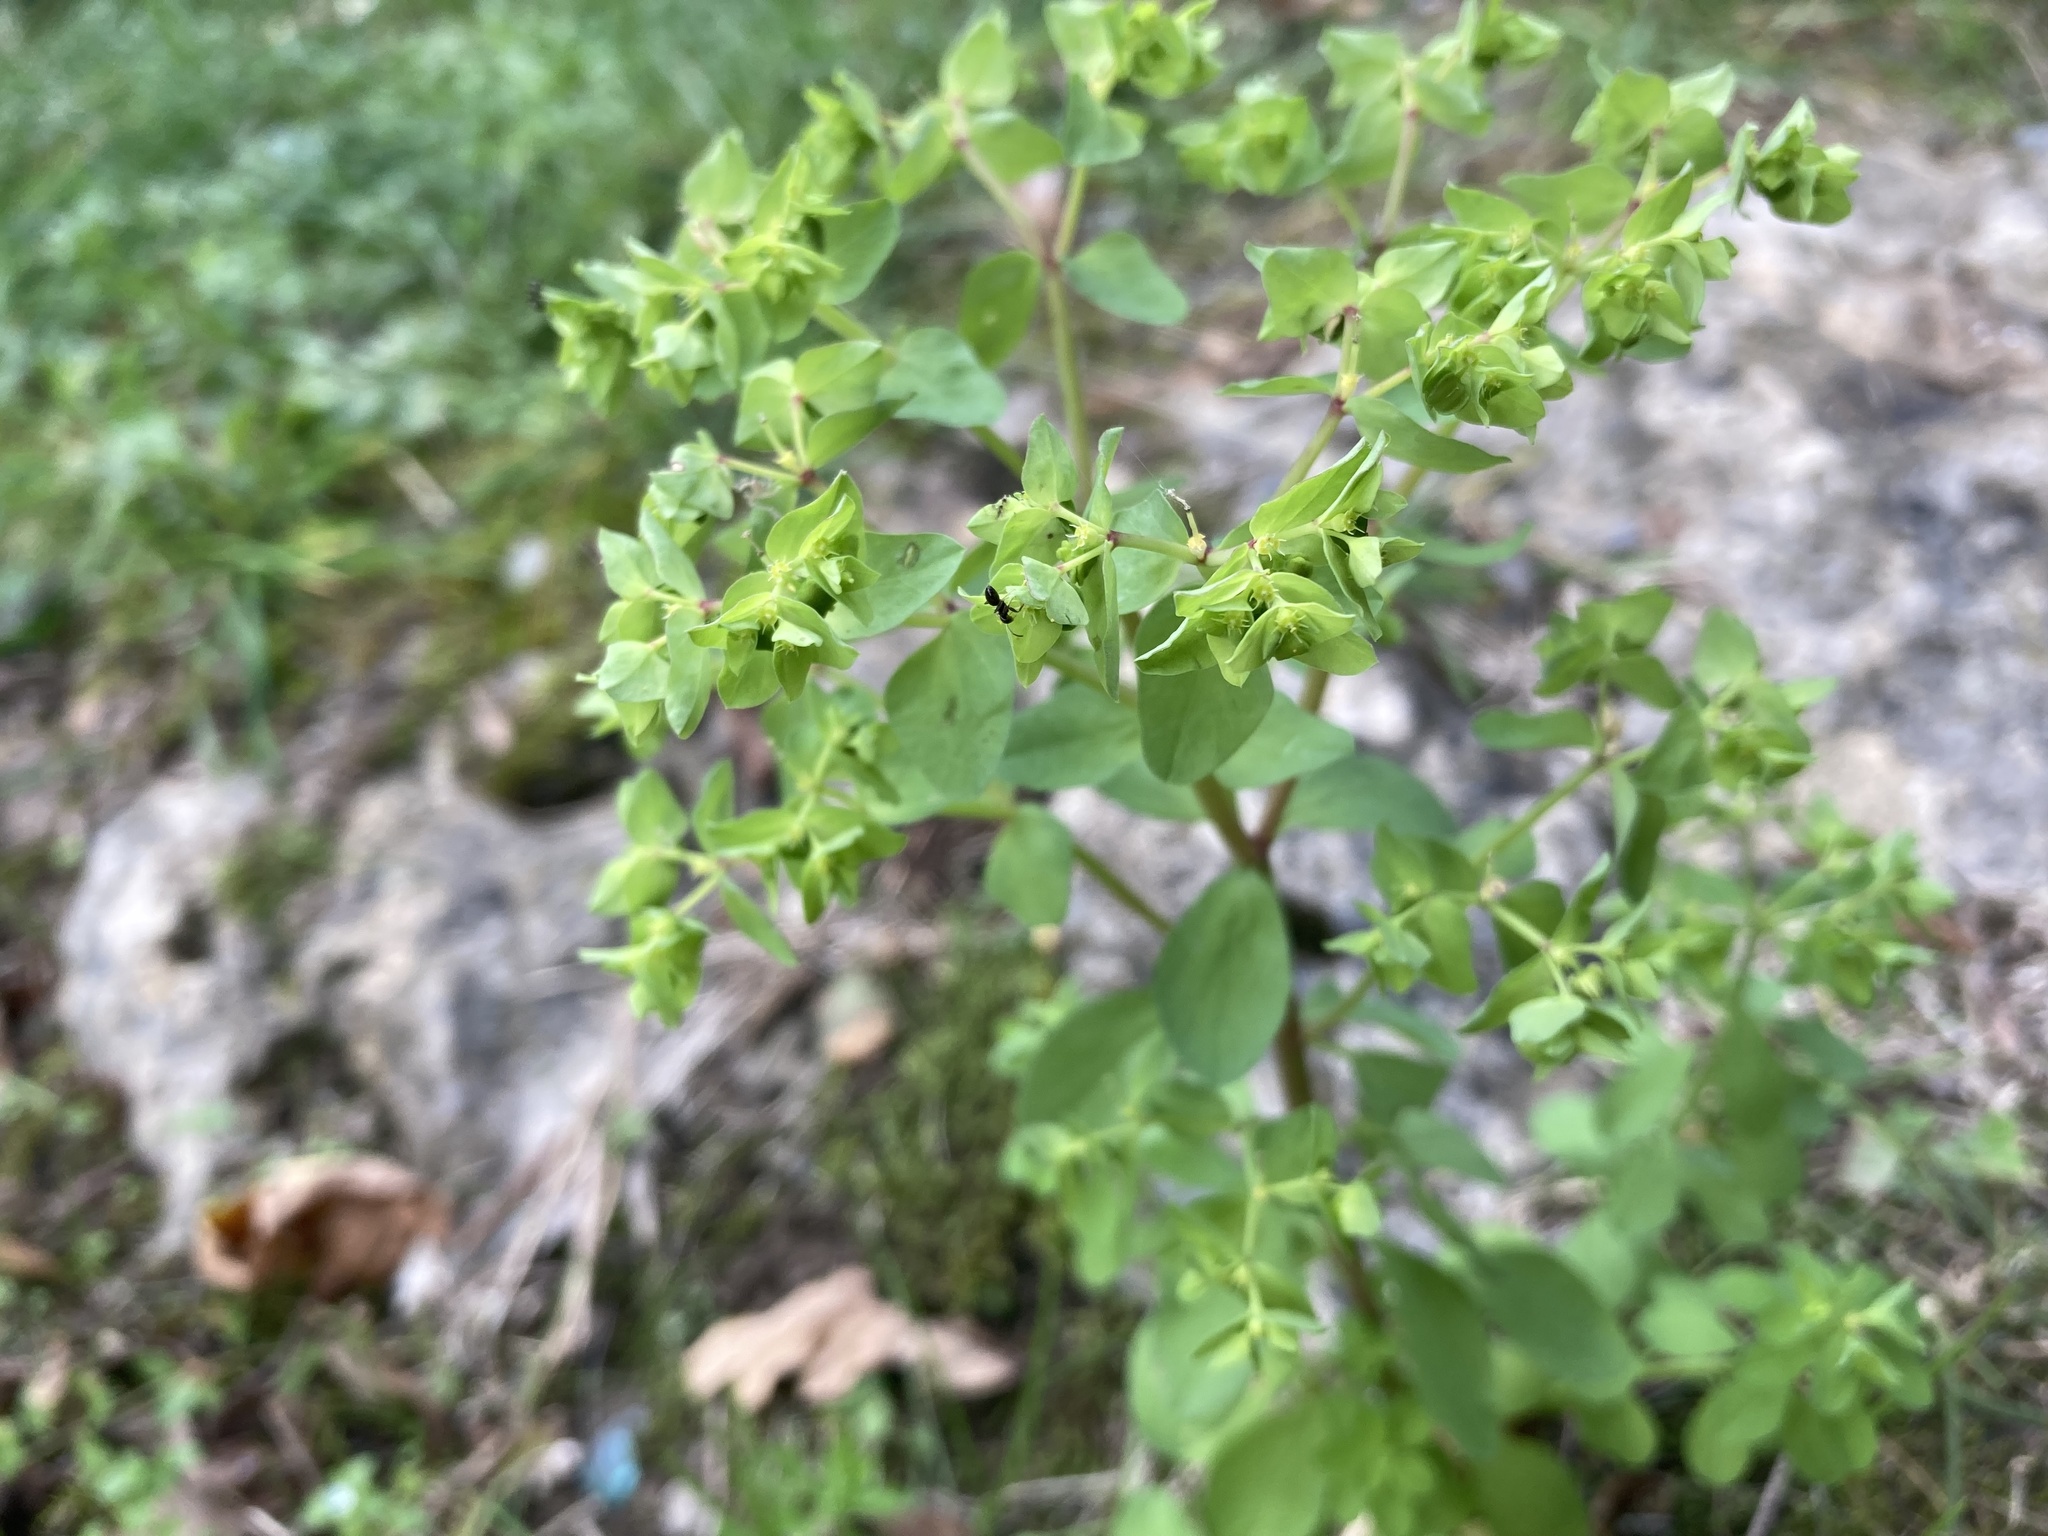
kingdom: Plantae
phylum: Tracheophyta
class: Magnoliopsida
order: Malpighiales
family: Euphorbiaceae
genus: Euphorbia
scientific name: Euphorbia peplus
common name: Petty spurge
